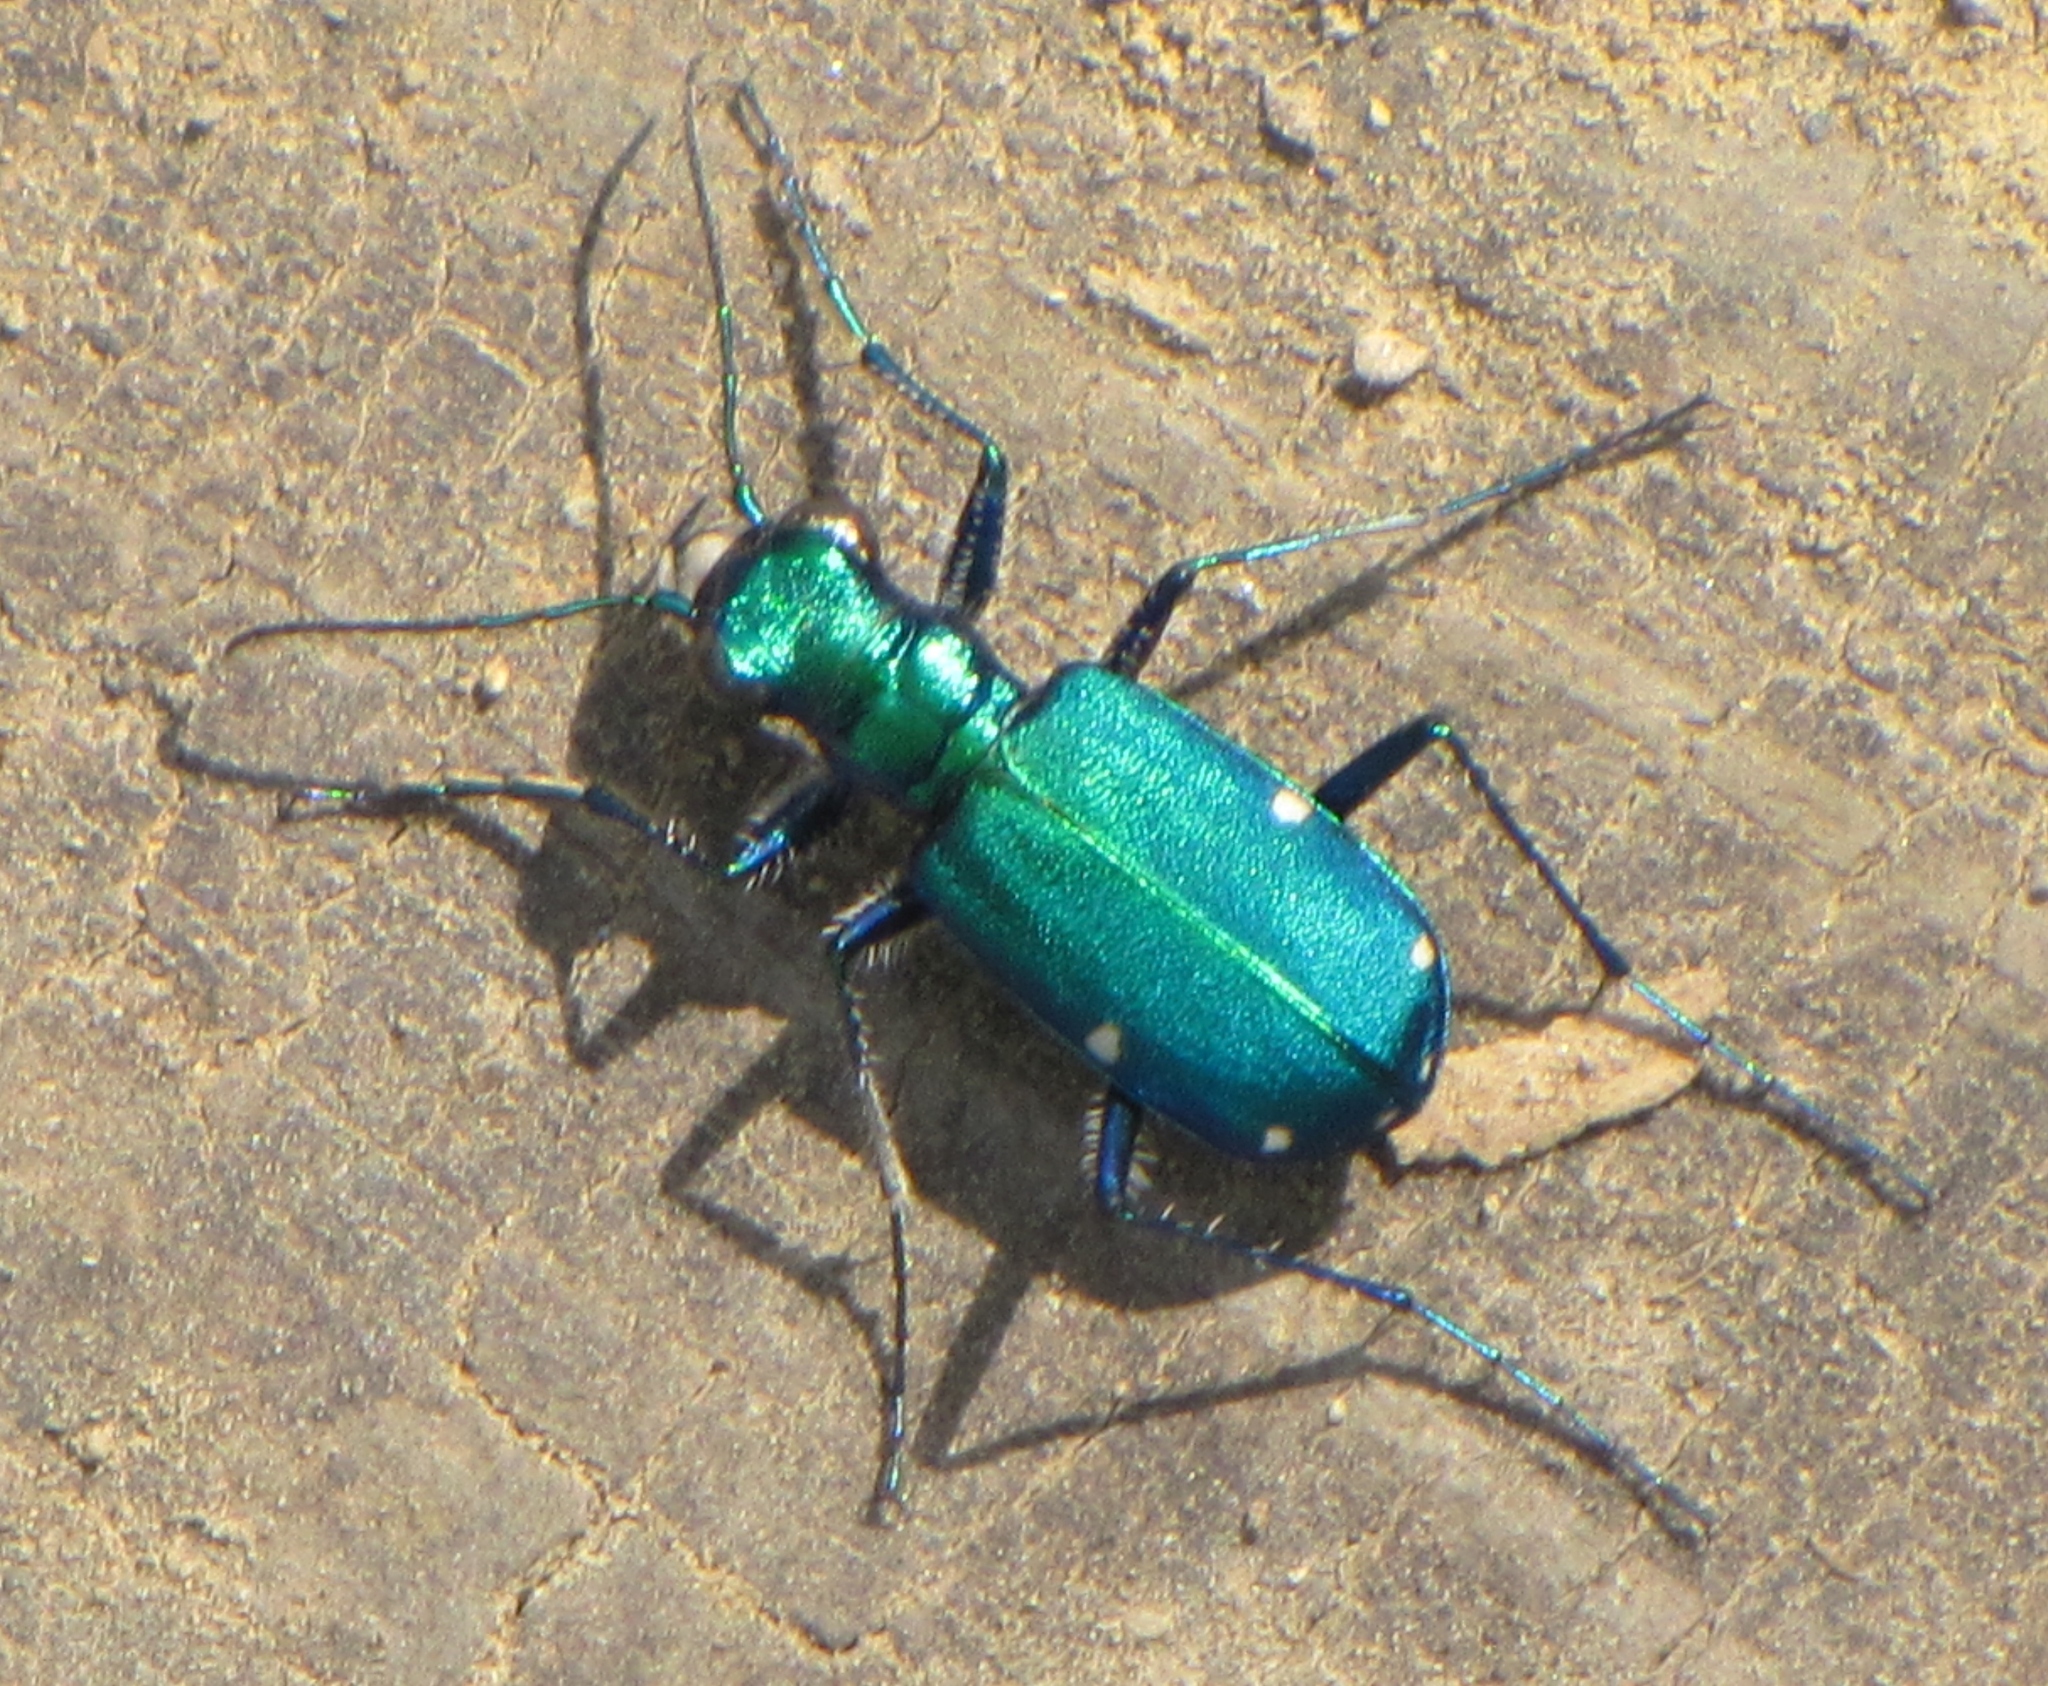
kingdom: Animalia
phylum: Arthropoda
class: Insecta
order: Coleoptera
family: Carabidae
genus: Cicindela
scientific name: Cicindela sexguttata
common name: Six-spotted tiger beetle
